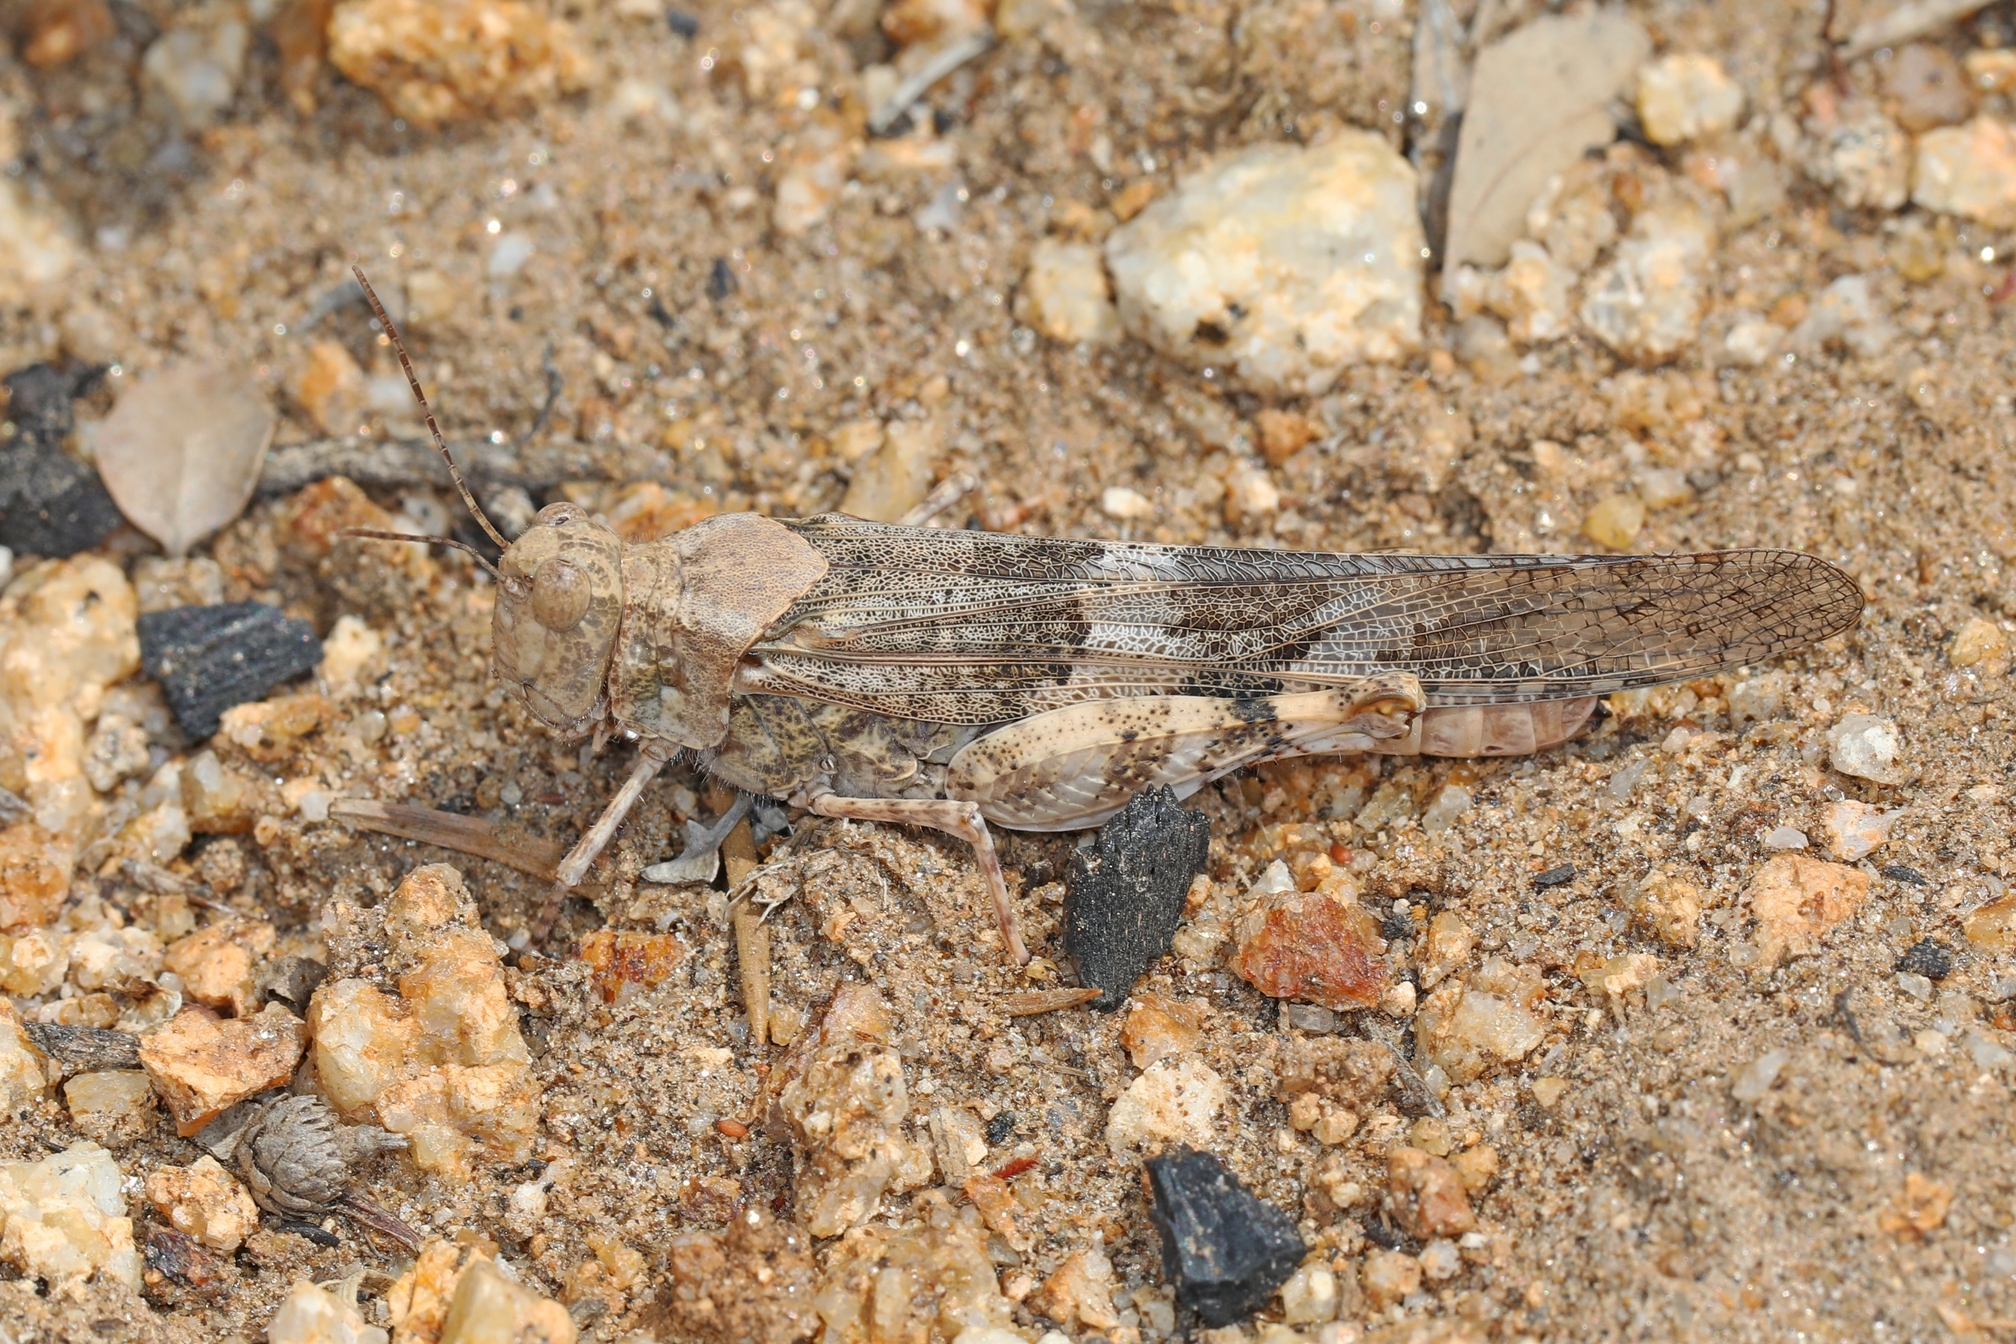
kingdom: Animalia
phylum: Arthropoda
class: Insecta
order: Orthoptera
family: Acrididae
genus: Trimerotropis
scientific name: Trimerotropis pallidipennis
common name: Pallid-winged grasshopper
